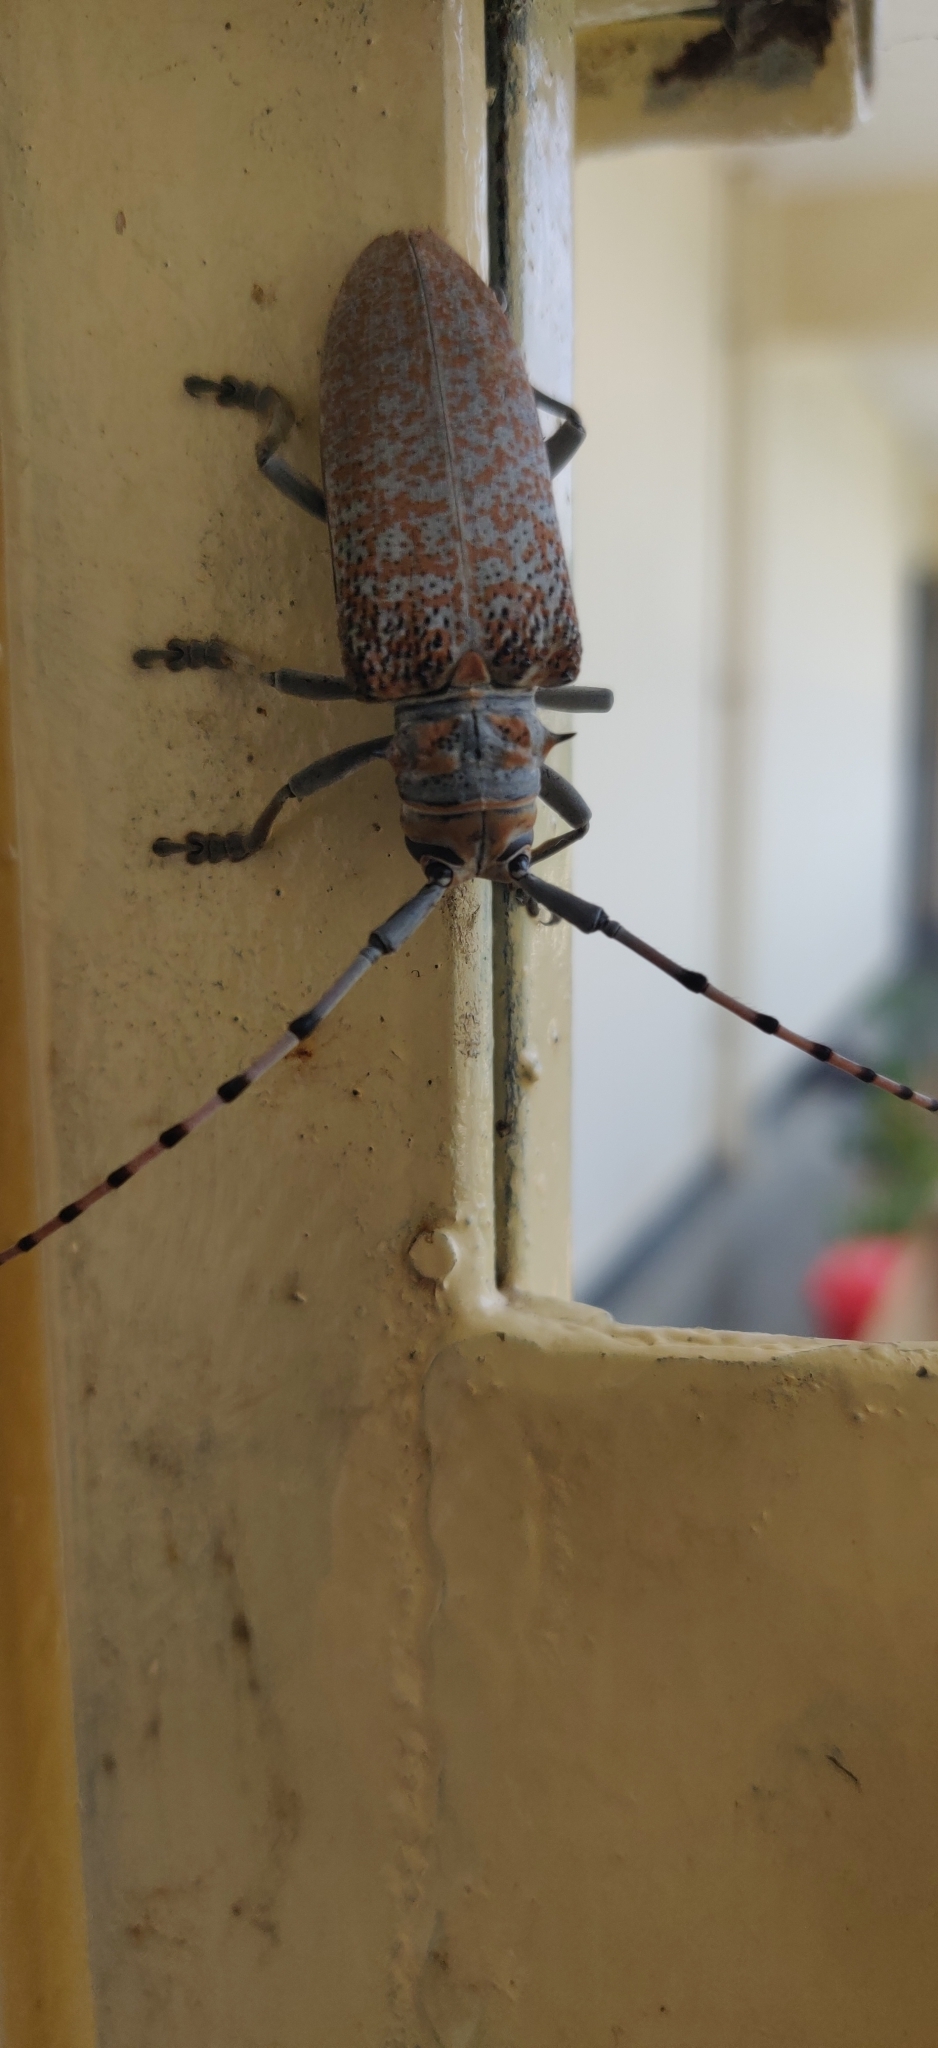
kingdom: Animalia
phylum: Arthropoda
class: Insecta
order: Coleoptera
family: Cerambycidae
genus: Cerosterna
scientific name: Cerosterna scabrator
